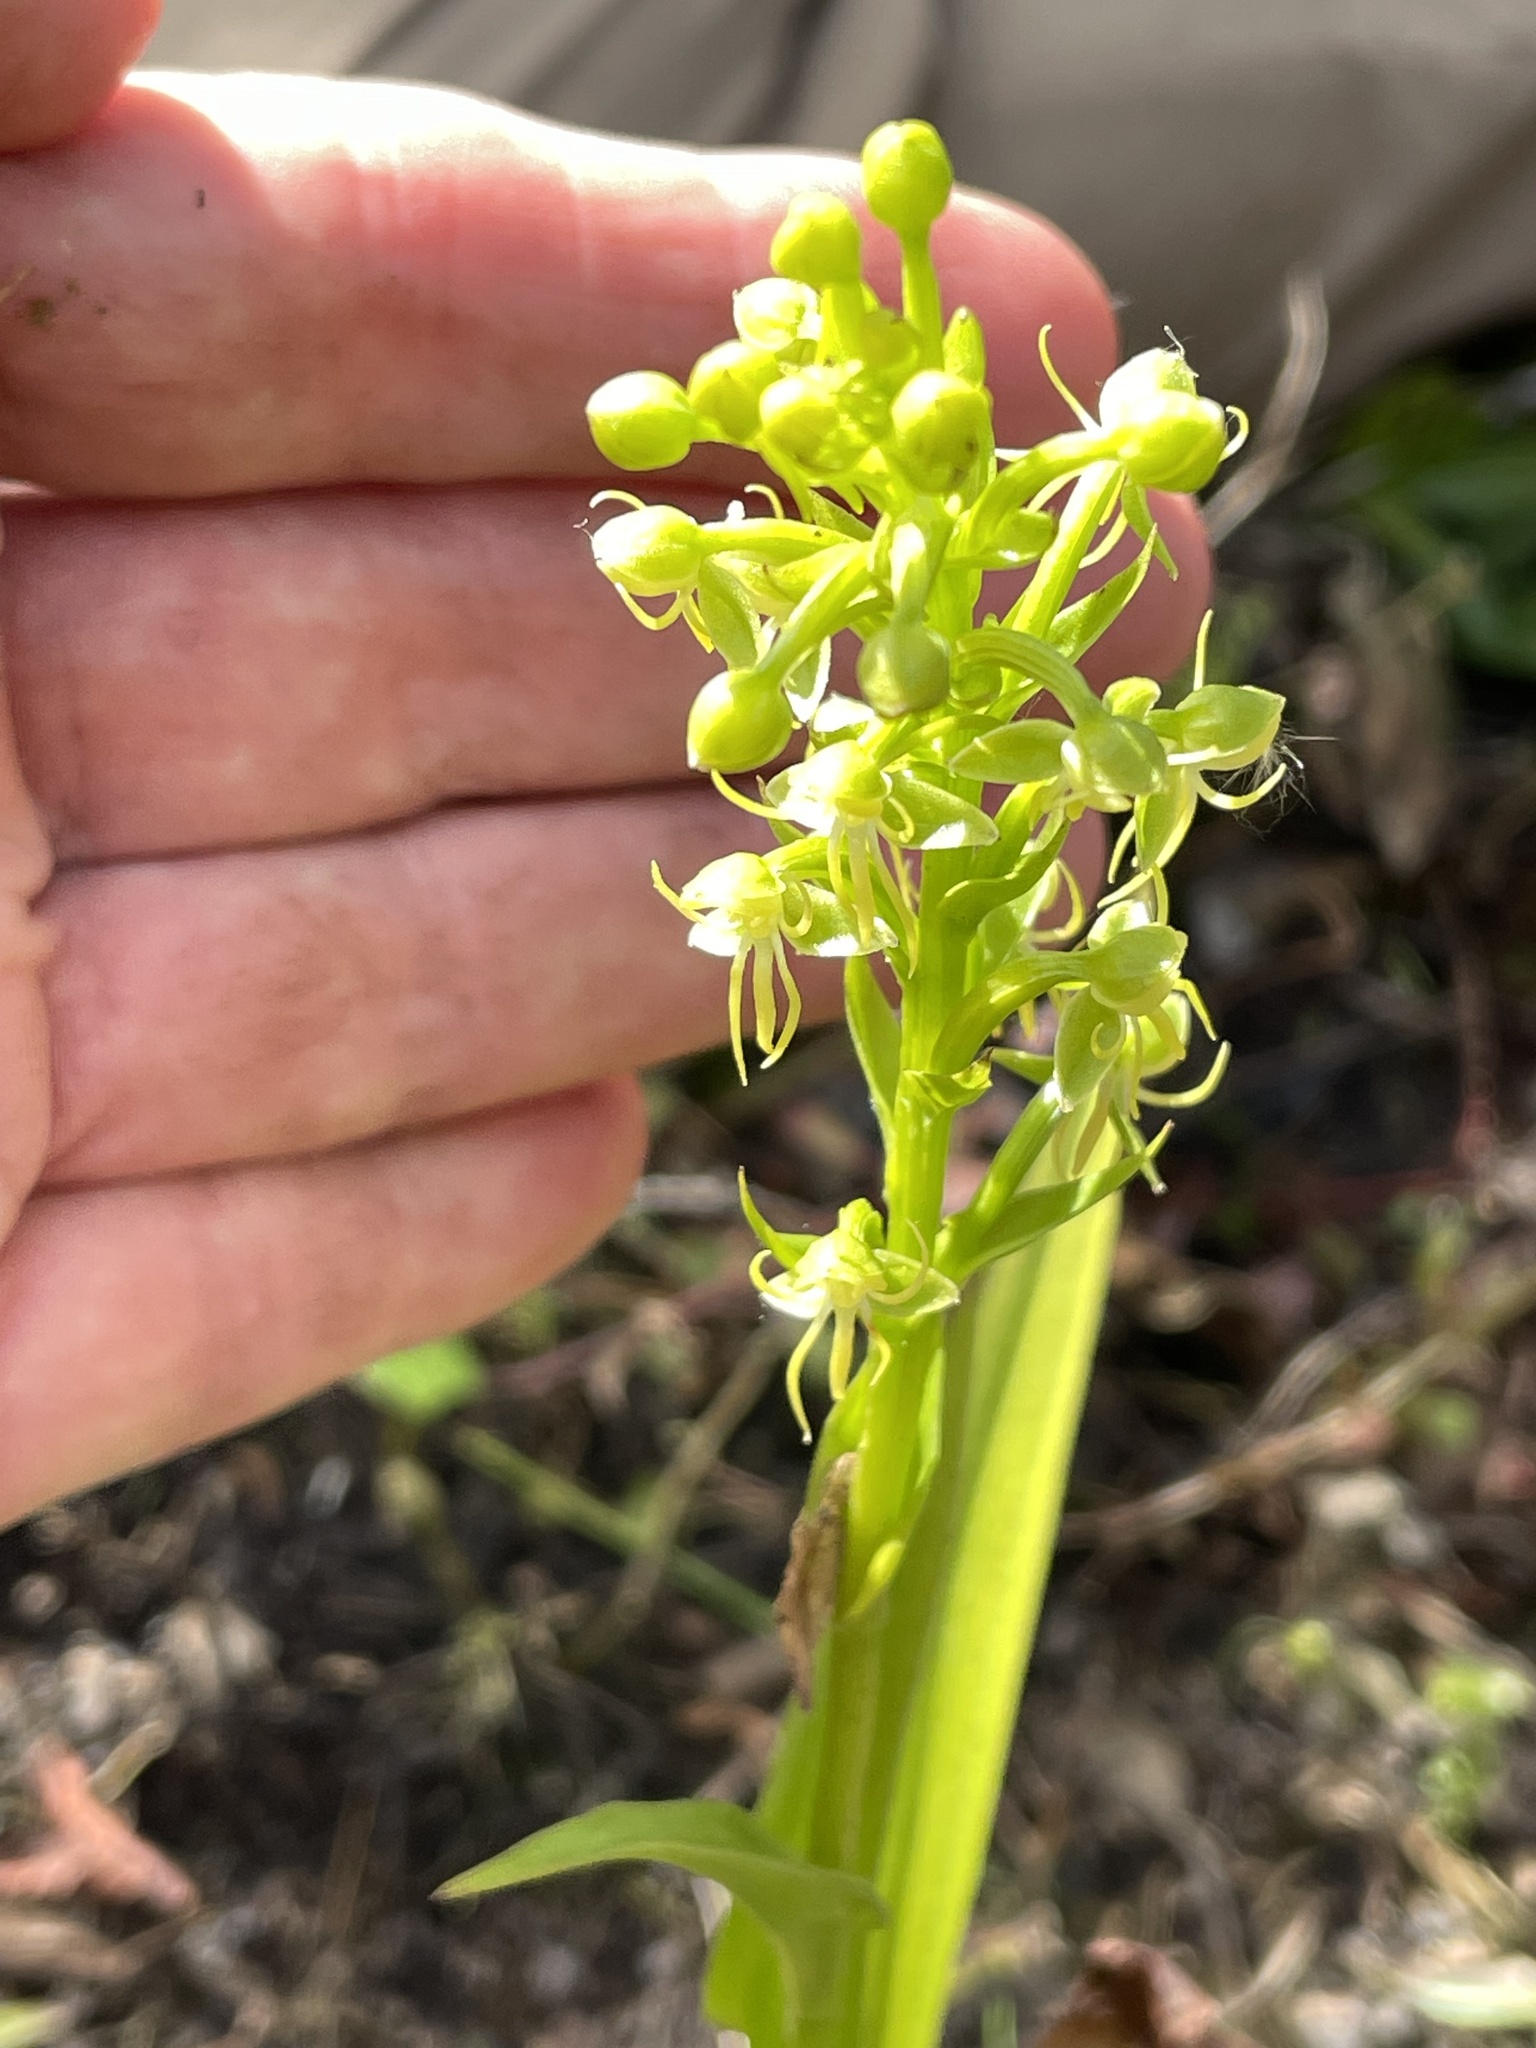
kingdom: Plantae
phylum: Tracheophyta
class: Liliopsida
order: Asparagales
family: Orchidaceae
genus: Habenaria
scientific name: Habenaria repens
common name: Water orchid
